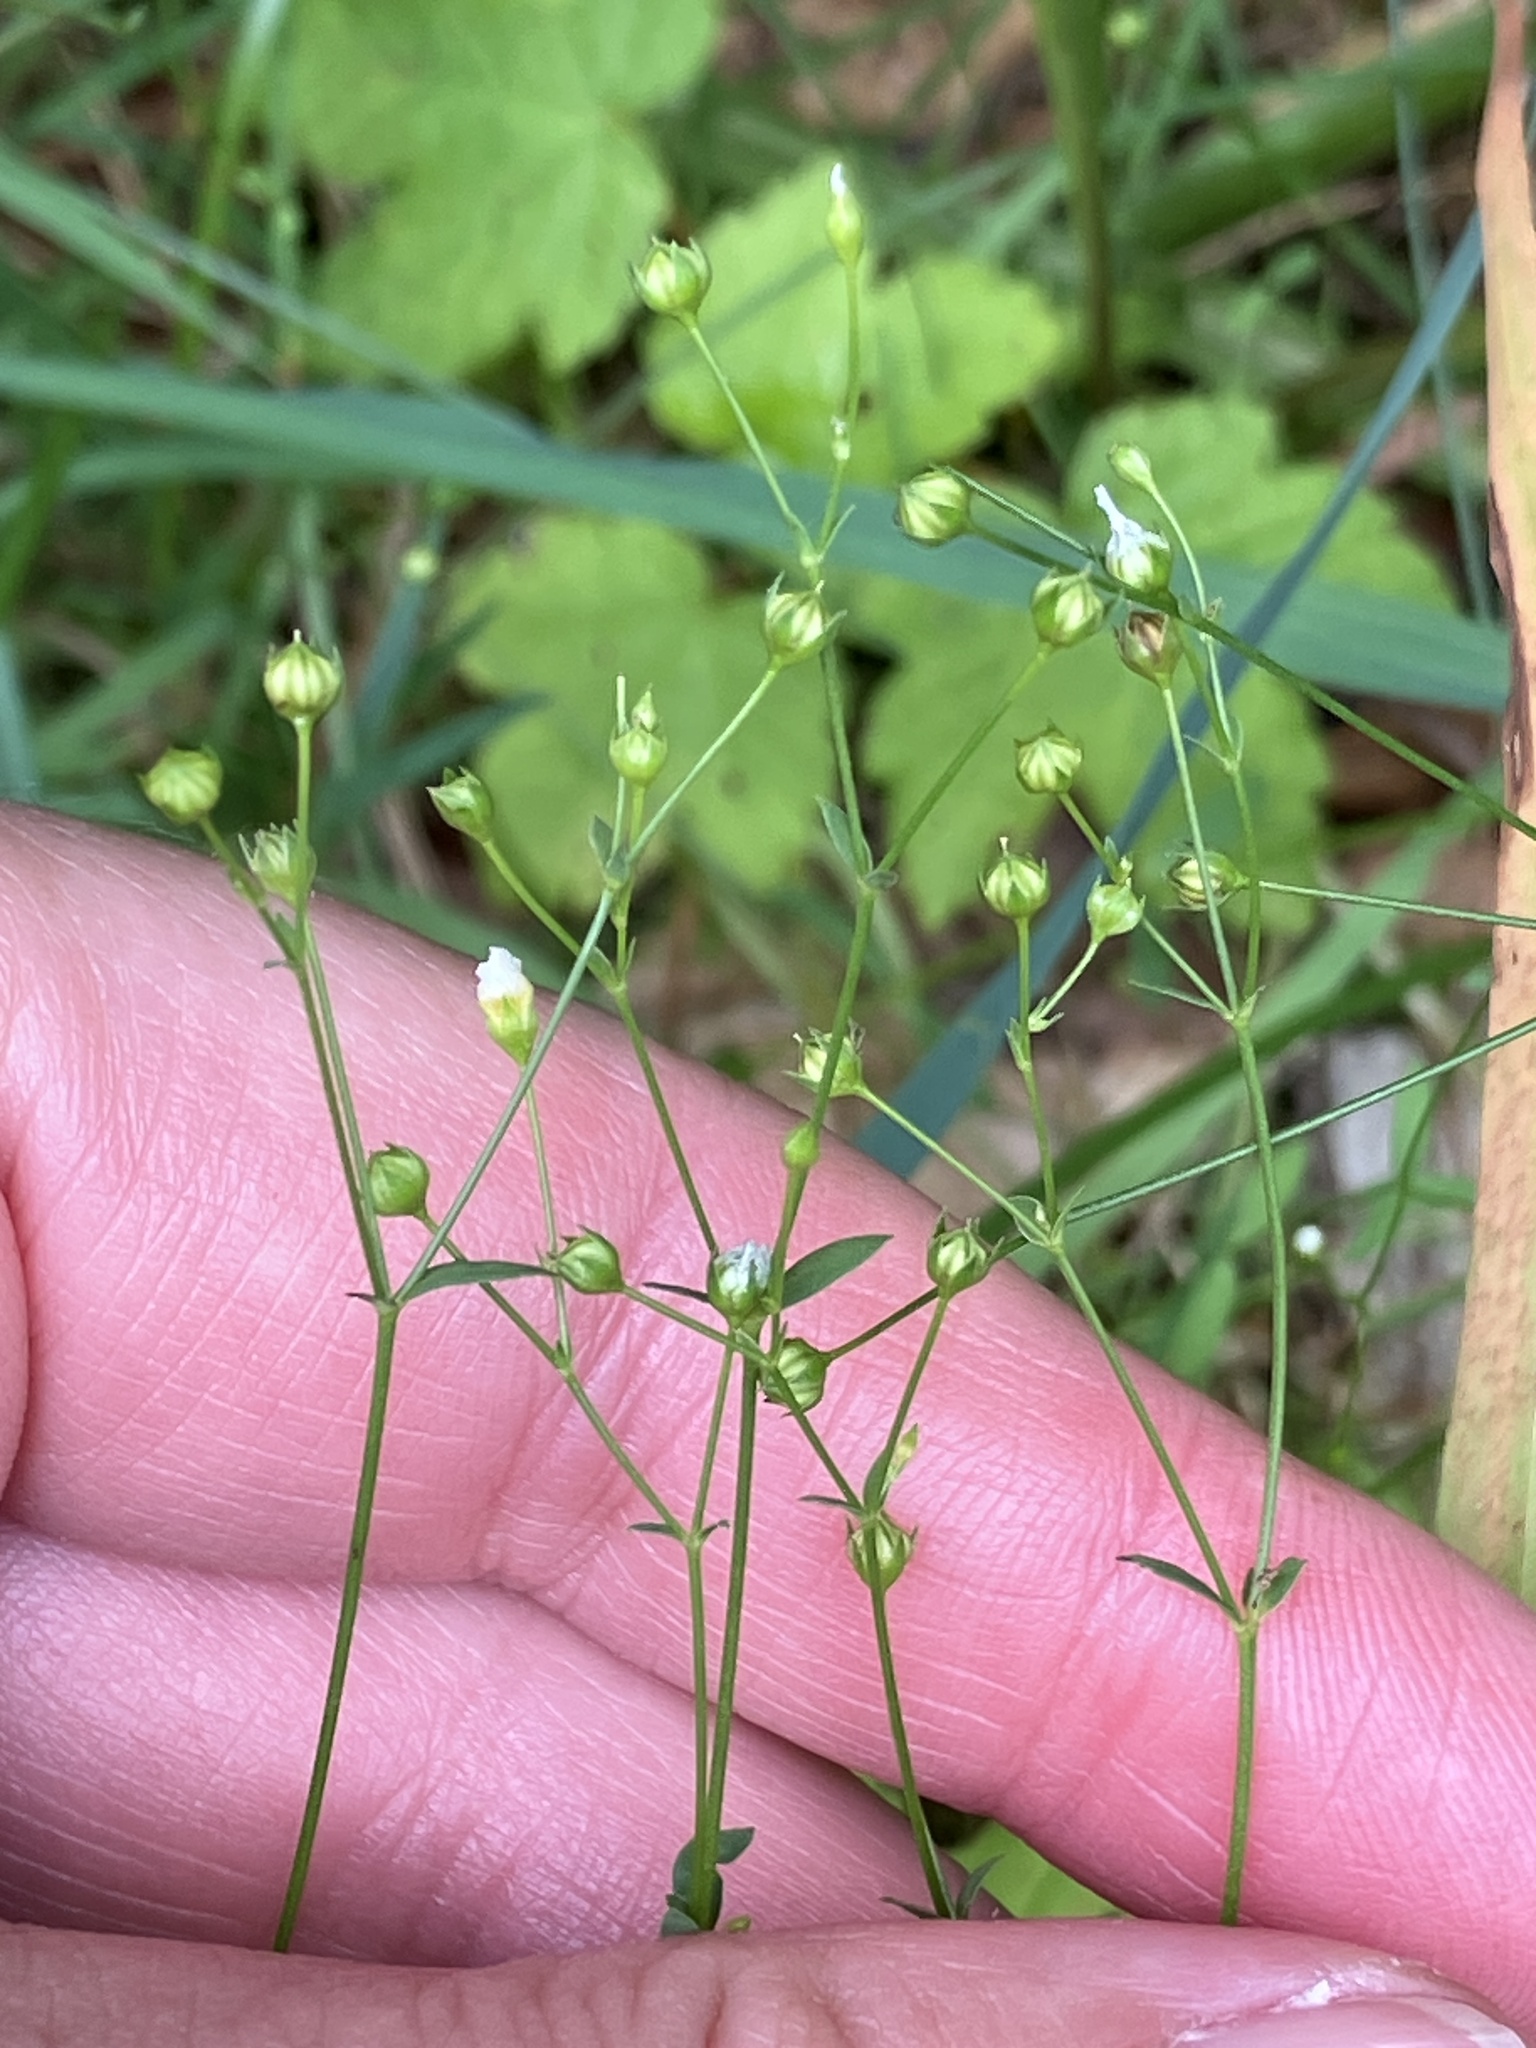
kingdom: Plantae
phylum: Tracheophyta
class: Magnoliopsida
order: Malpighiales
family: Linaceae
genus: Linum
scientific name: Linum catharticum
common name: Fairy flax
